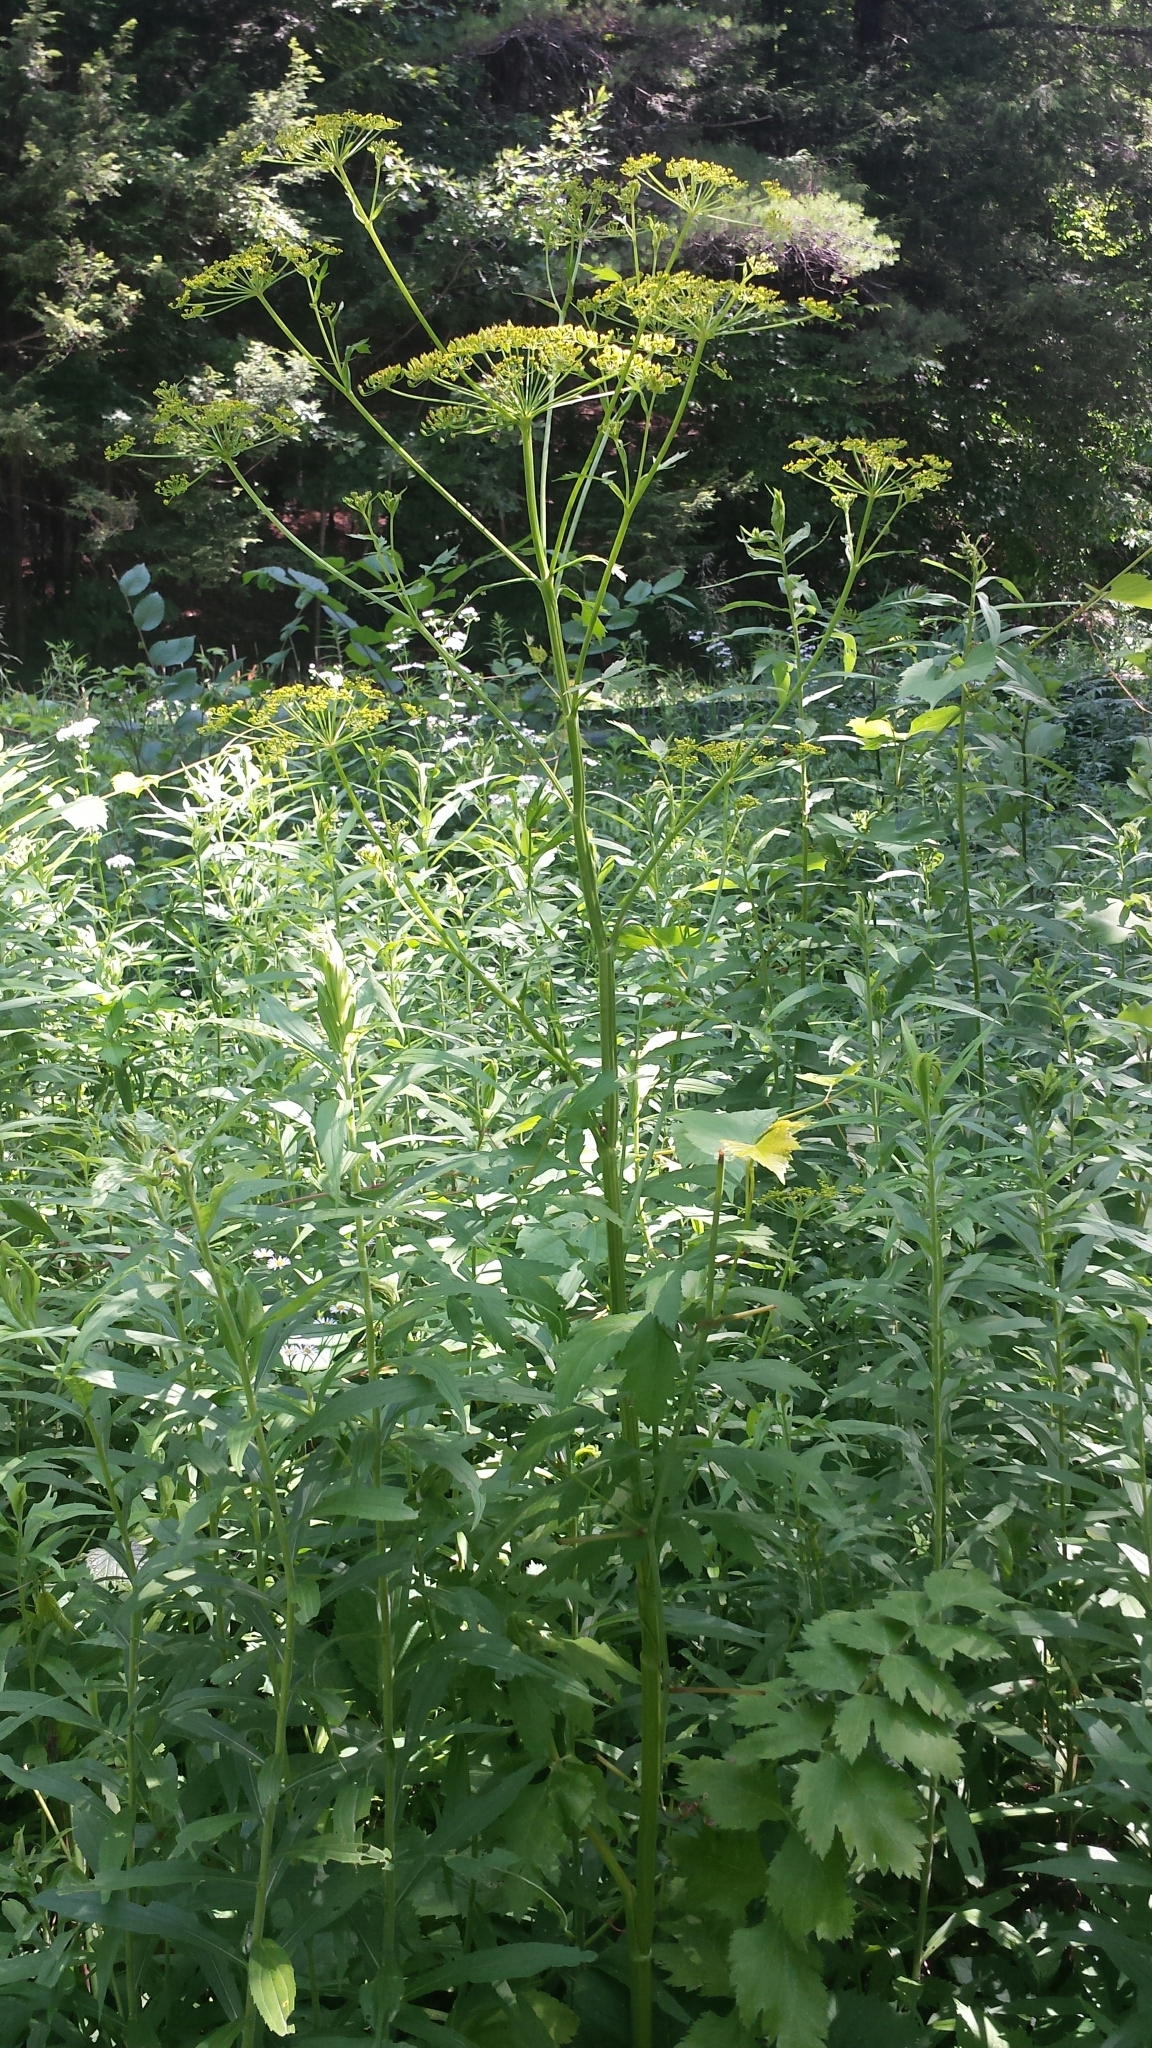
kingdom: Plantae
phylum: Tracheophyta
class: Magnoliopsida
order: Apiales
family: Apiaceae
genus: Pastinaca
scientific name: Pastinaca sativa
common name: Wild parsnip
